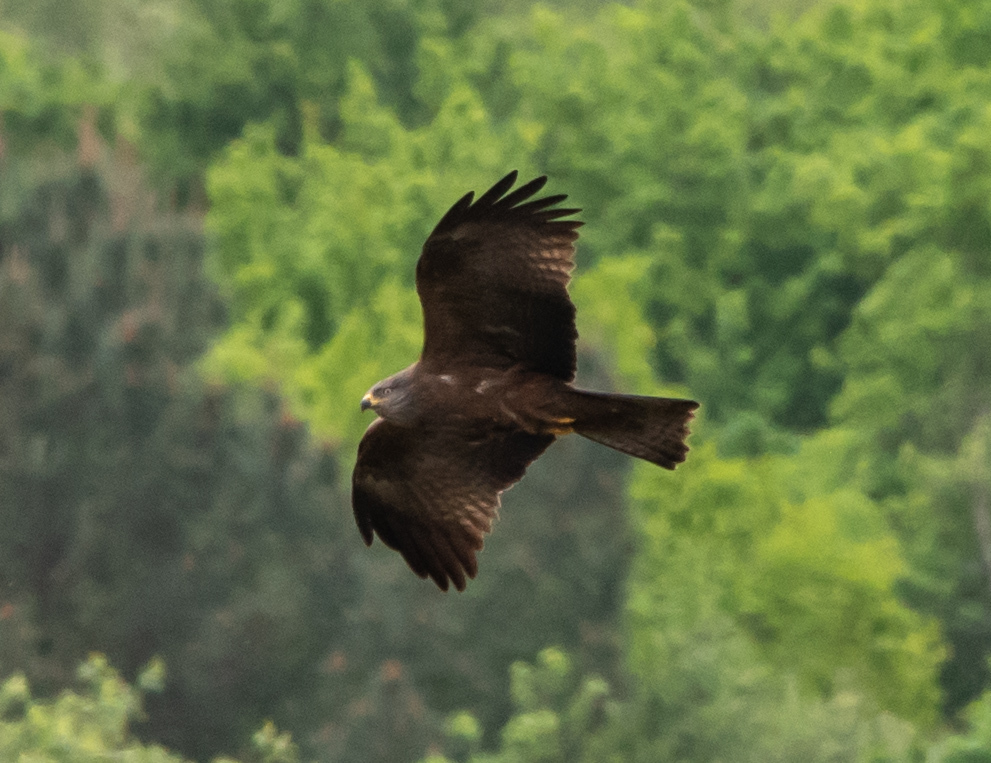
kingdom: Animalia
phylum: Chordata
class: Aves
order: Accipitriformes
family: Accipitridae
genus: Milvus
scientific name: Milvus migrans
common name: Black kite
